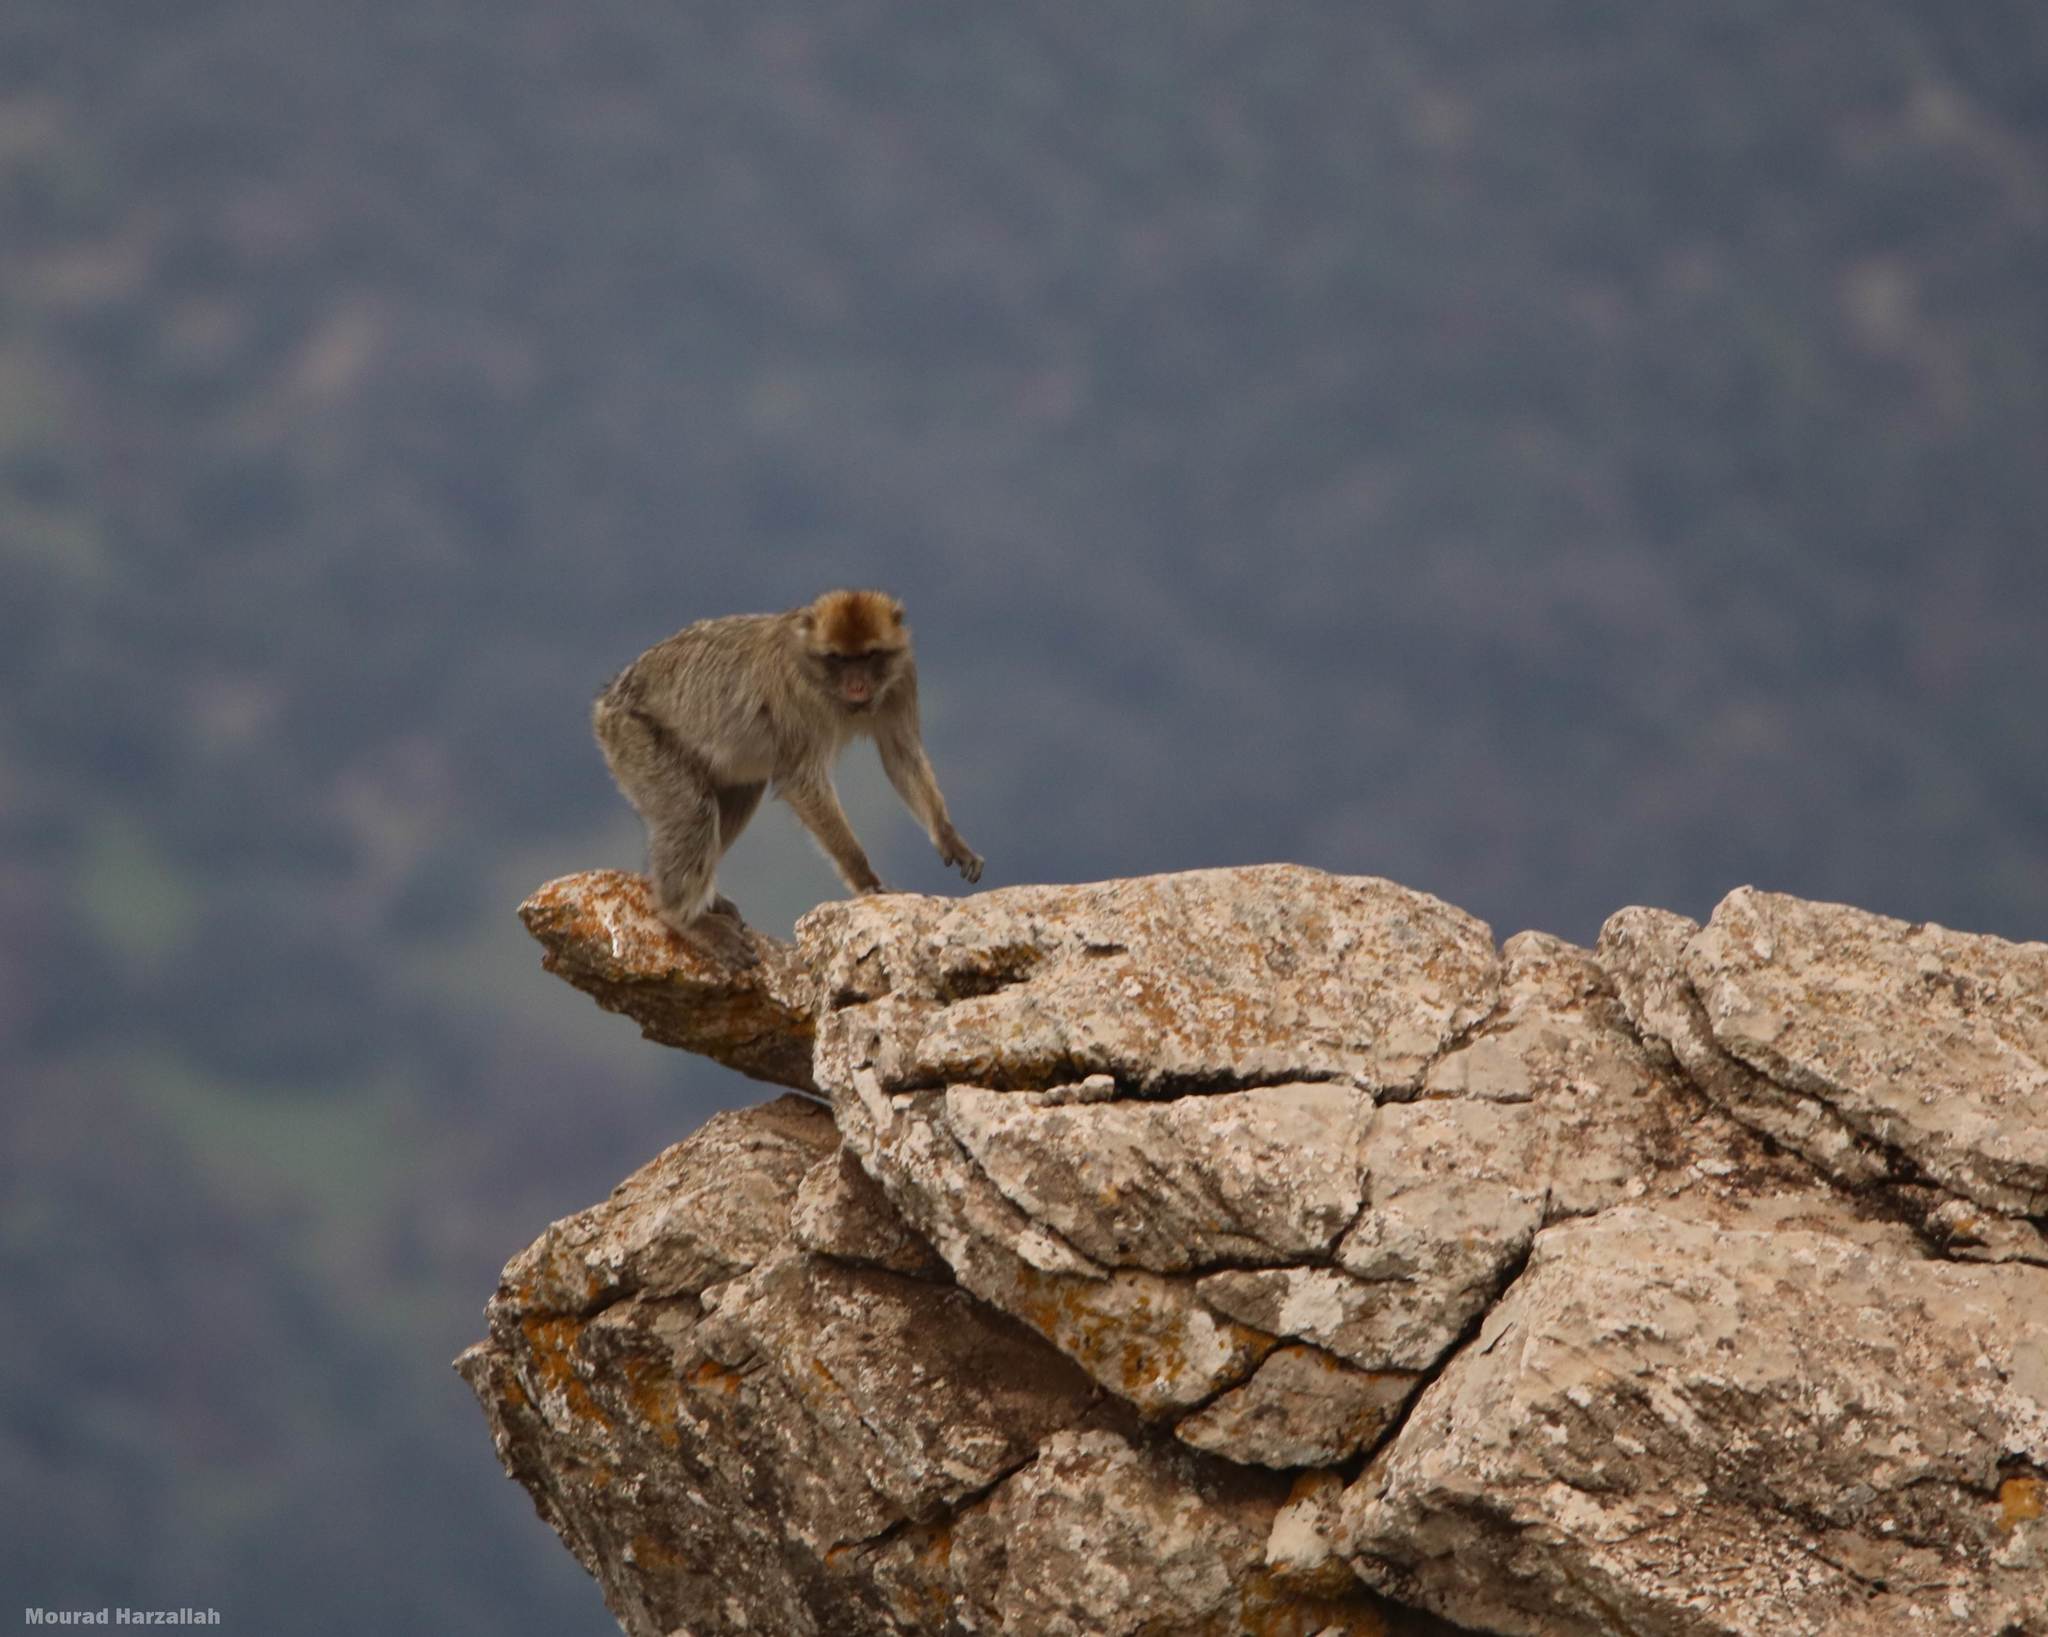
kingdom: Animalia
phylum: Chordata
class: Mammalia
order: Primates
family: Cercopithecidae
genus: Macaca
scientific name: Macaca sylvanus
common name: Barbary macaque
